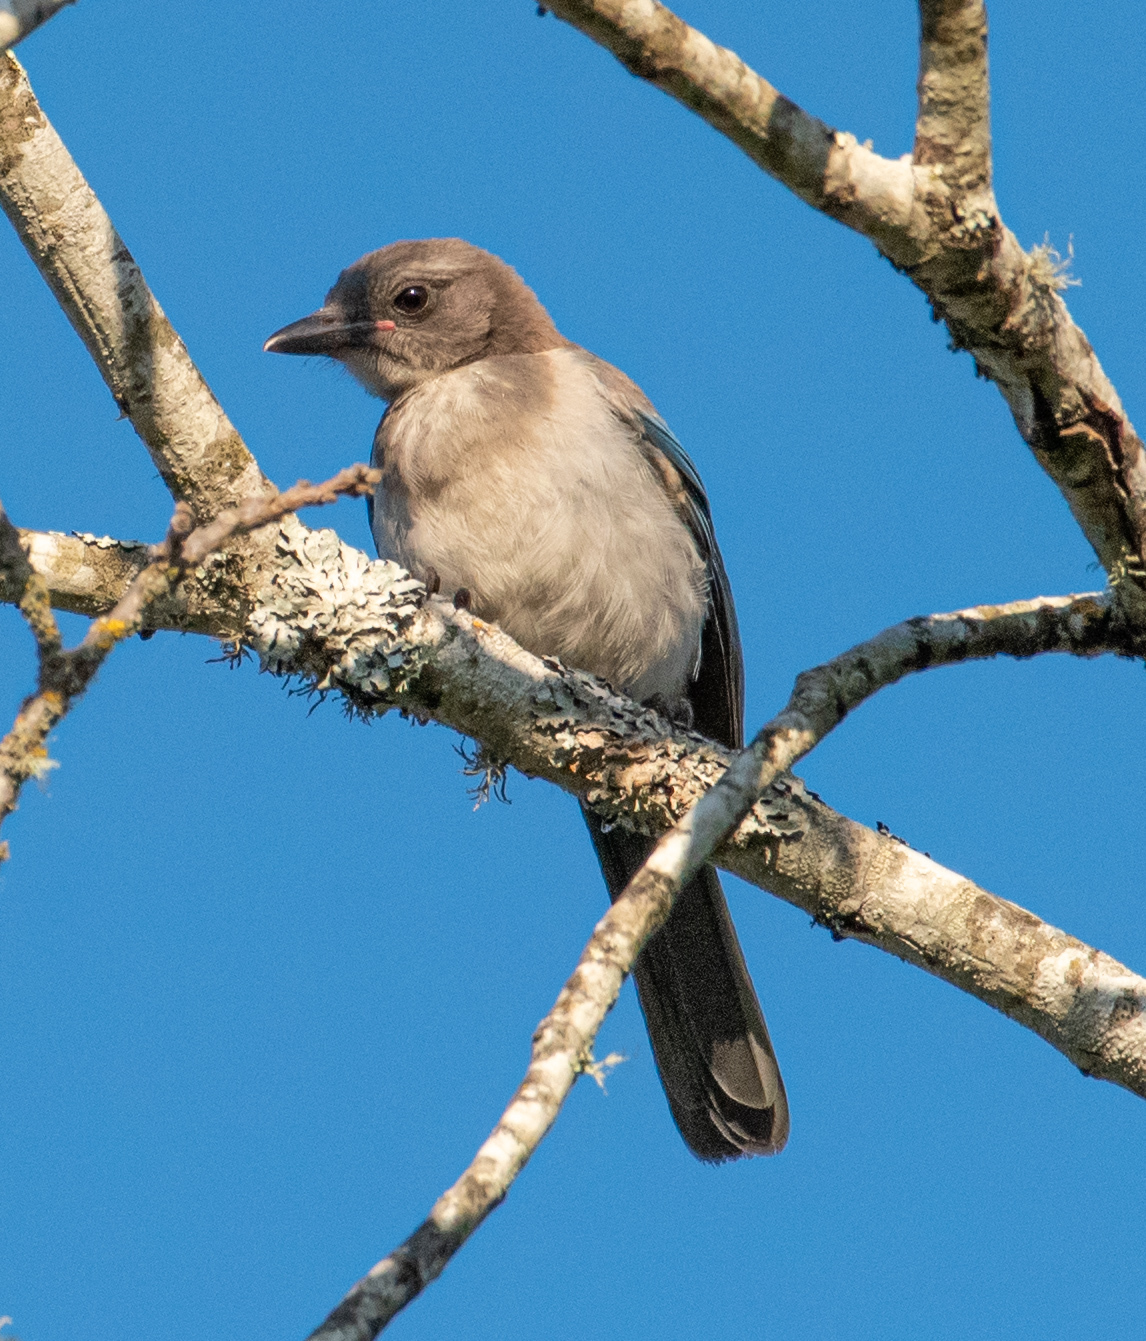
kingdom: Animalia
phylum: Chordata
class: Aves
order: Passeriformes
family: Corvidae
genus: Aphelocoma
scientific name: Aphelocoma californica
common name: California scrub-jay
